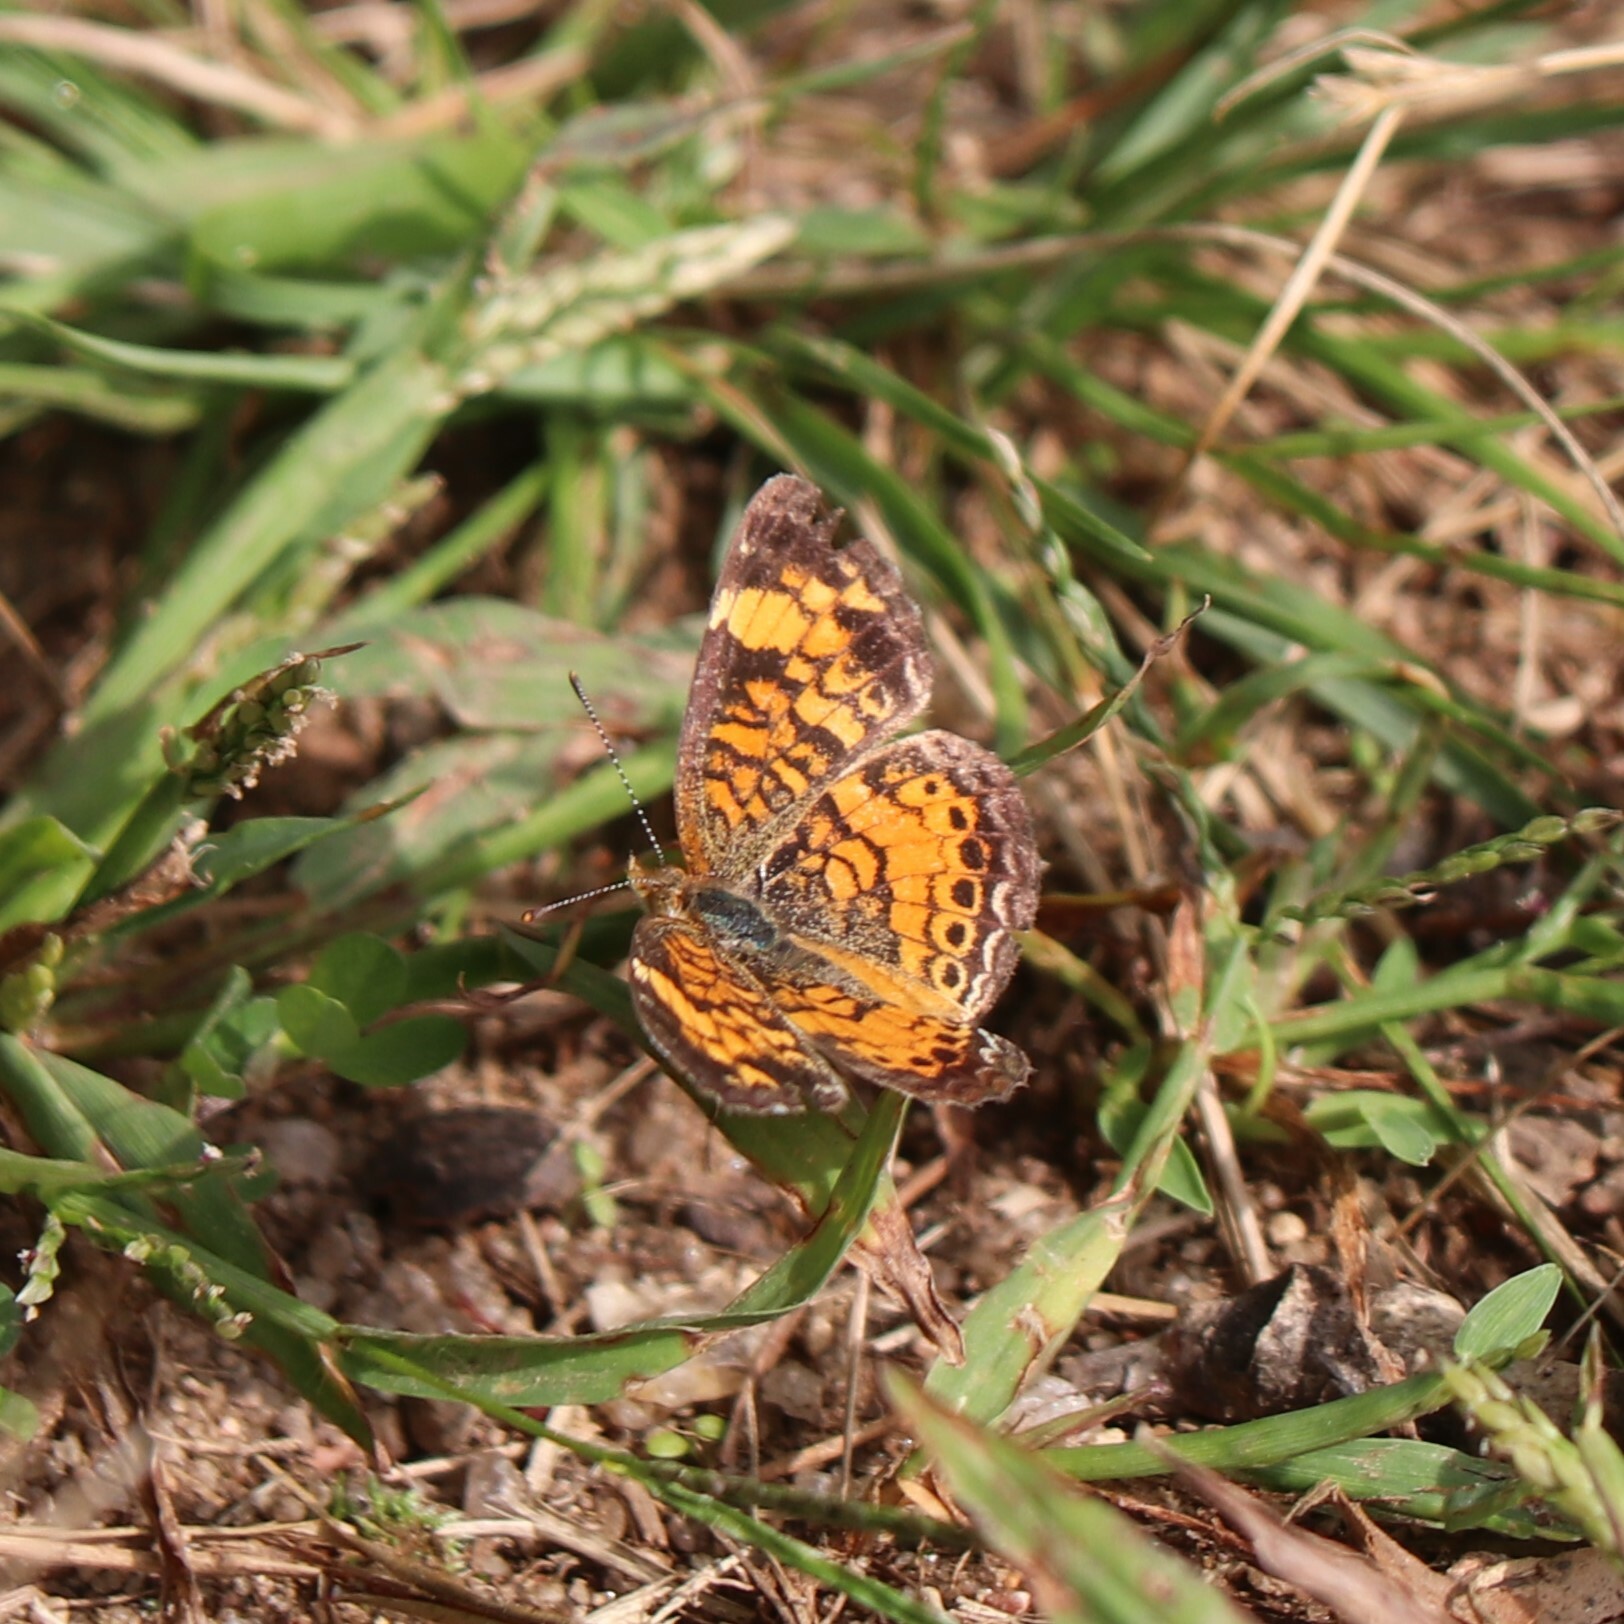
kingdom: Animalia
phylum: Arthropoda
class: Insecta
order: Lepidoptera
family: Nymphalidae
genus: Phyciodes
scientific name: Phyciodes tharos
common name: Pearl crescent
